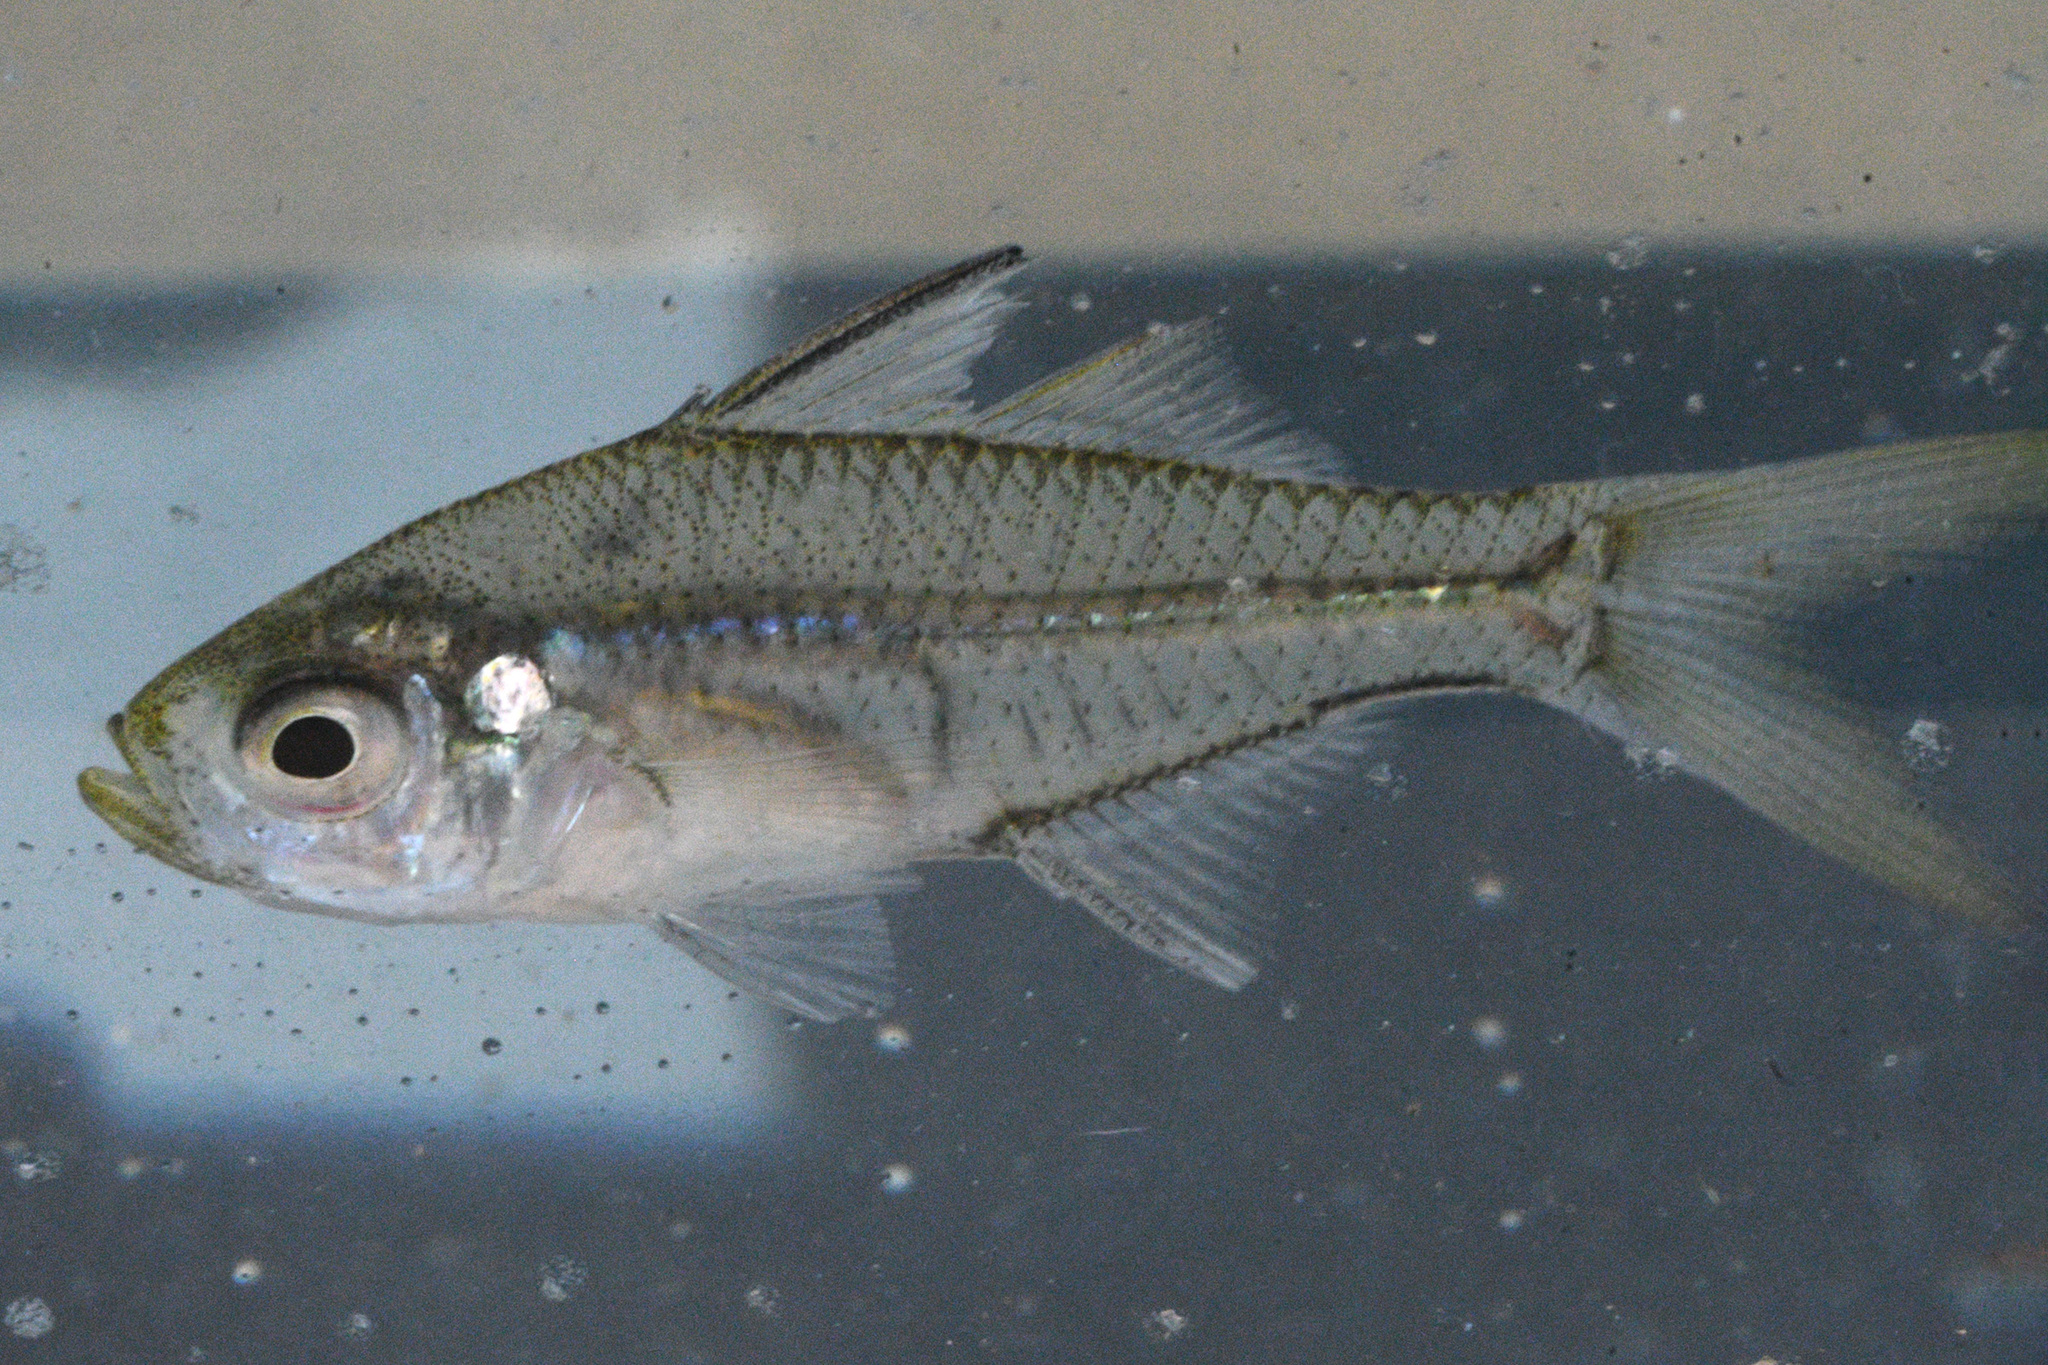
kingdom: Animalia
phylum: Chordata
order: Perciformes
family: Ambassidae
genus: Ambassis
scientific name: Ambassis jacksoniensis
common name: Port jackson glassfish
